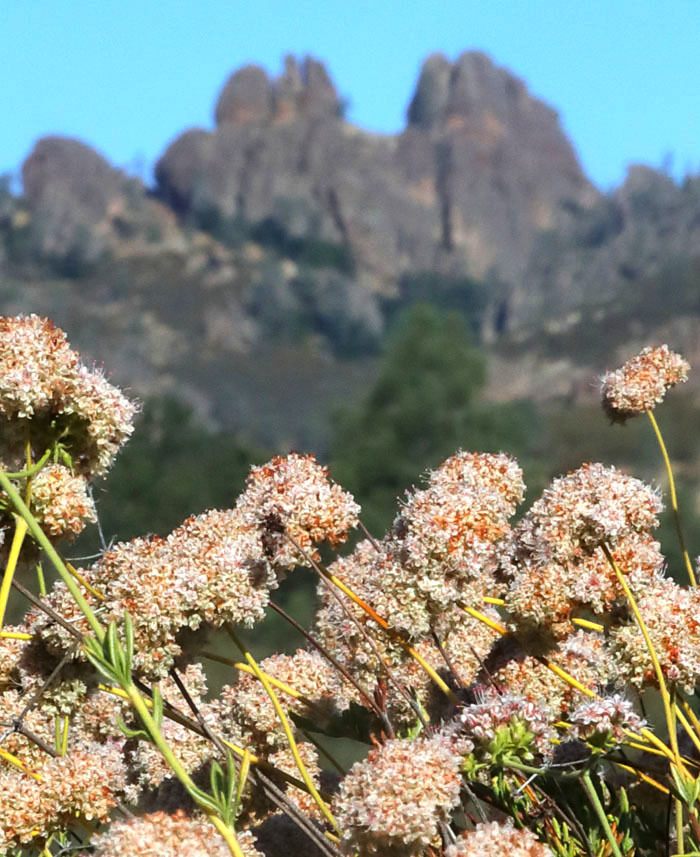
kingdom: Plantae
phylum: Tracheophyta
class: Magnoliopsida
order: Caryophyllales
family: Polygonaceae
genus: Eriogonum
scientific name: Eriogonum fasciculatum
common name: California wild buckwheat
